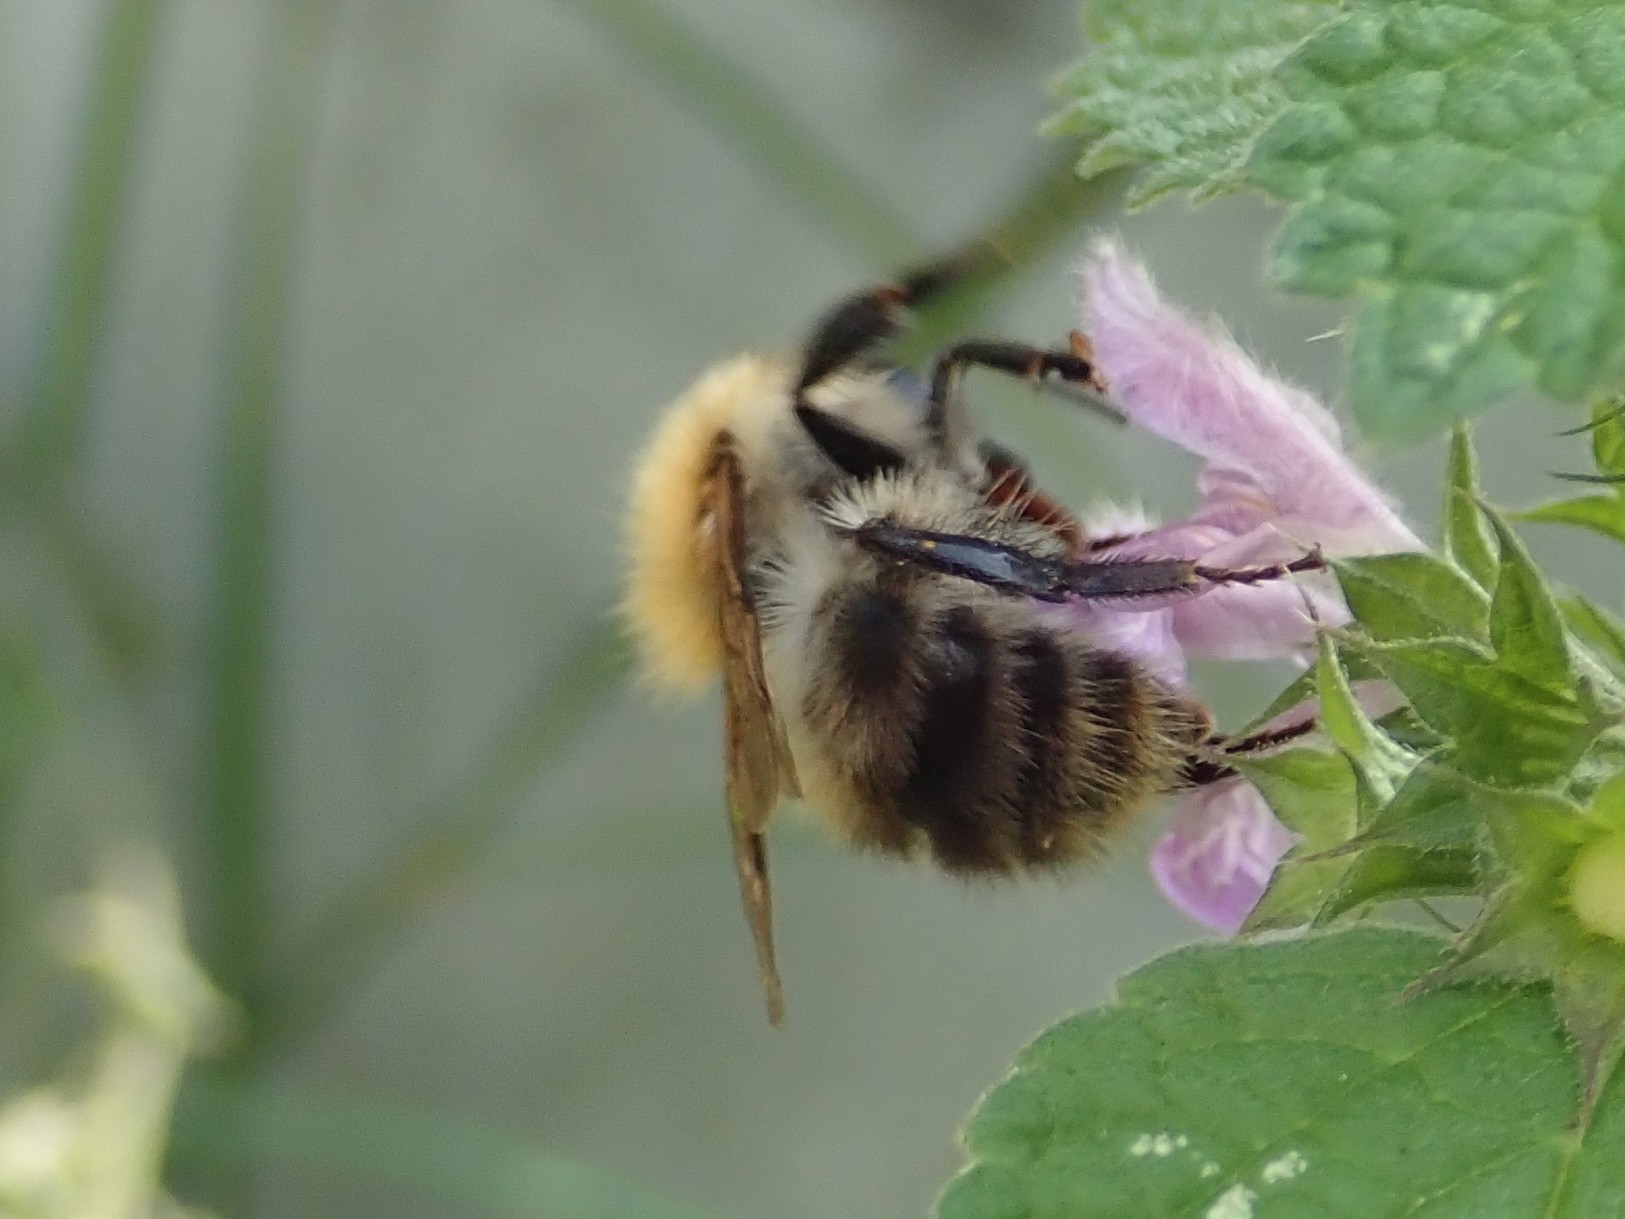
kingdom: Animalia
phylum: Arthropoda
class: Insecta
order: Hymenoptera
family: Apidae
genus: Bombus
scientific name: Bombus pascuorum
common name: Common carder bee
